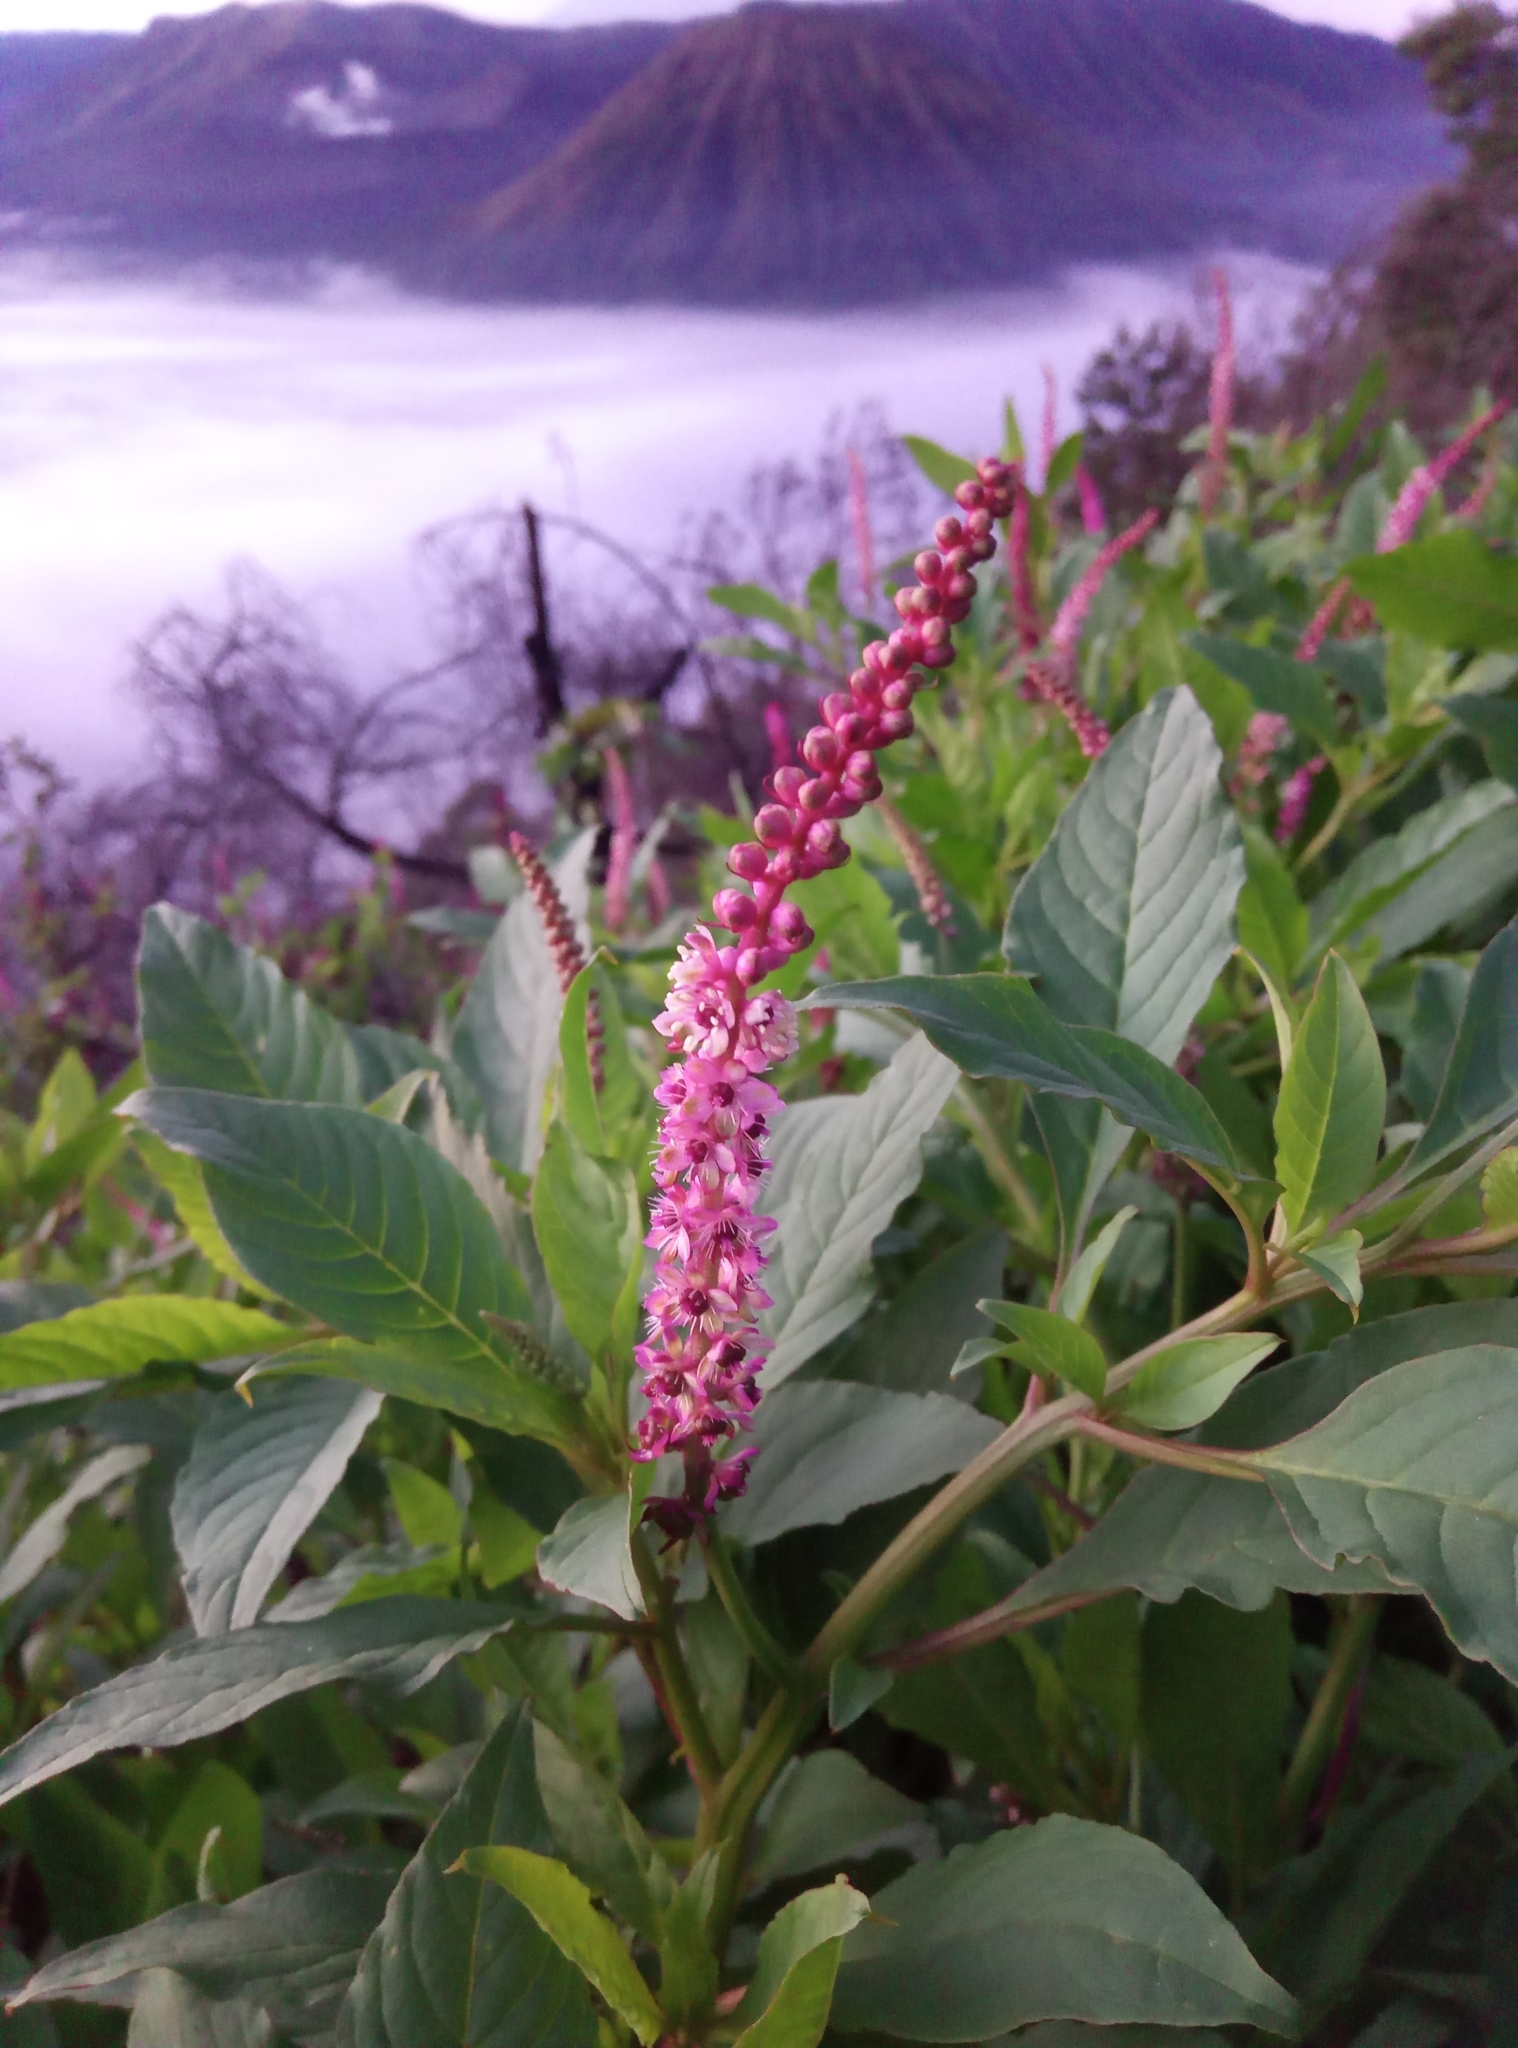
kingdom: Plantae
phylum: Tracheophyta
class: Magnoliopsida
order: Caryophyllales
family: Phytolaccaceae
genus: Phytolacca
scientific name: Phytolacca icosandra
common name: Button pokeweed
